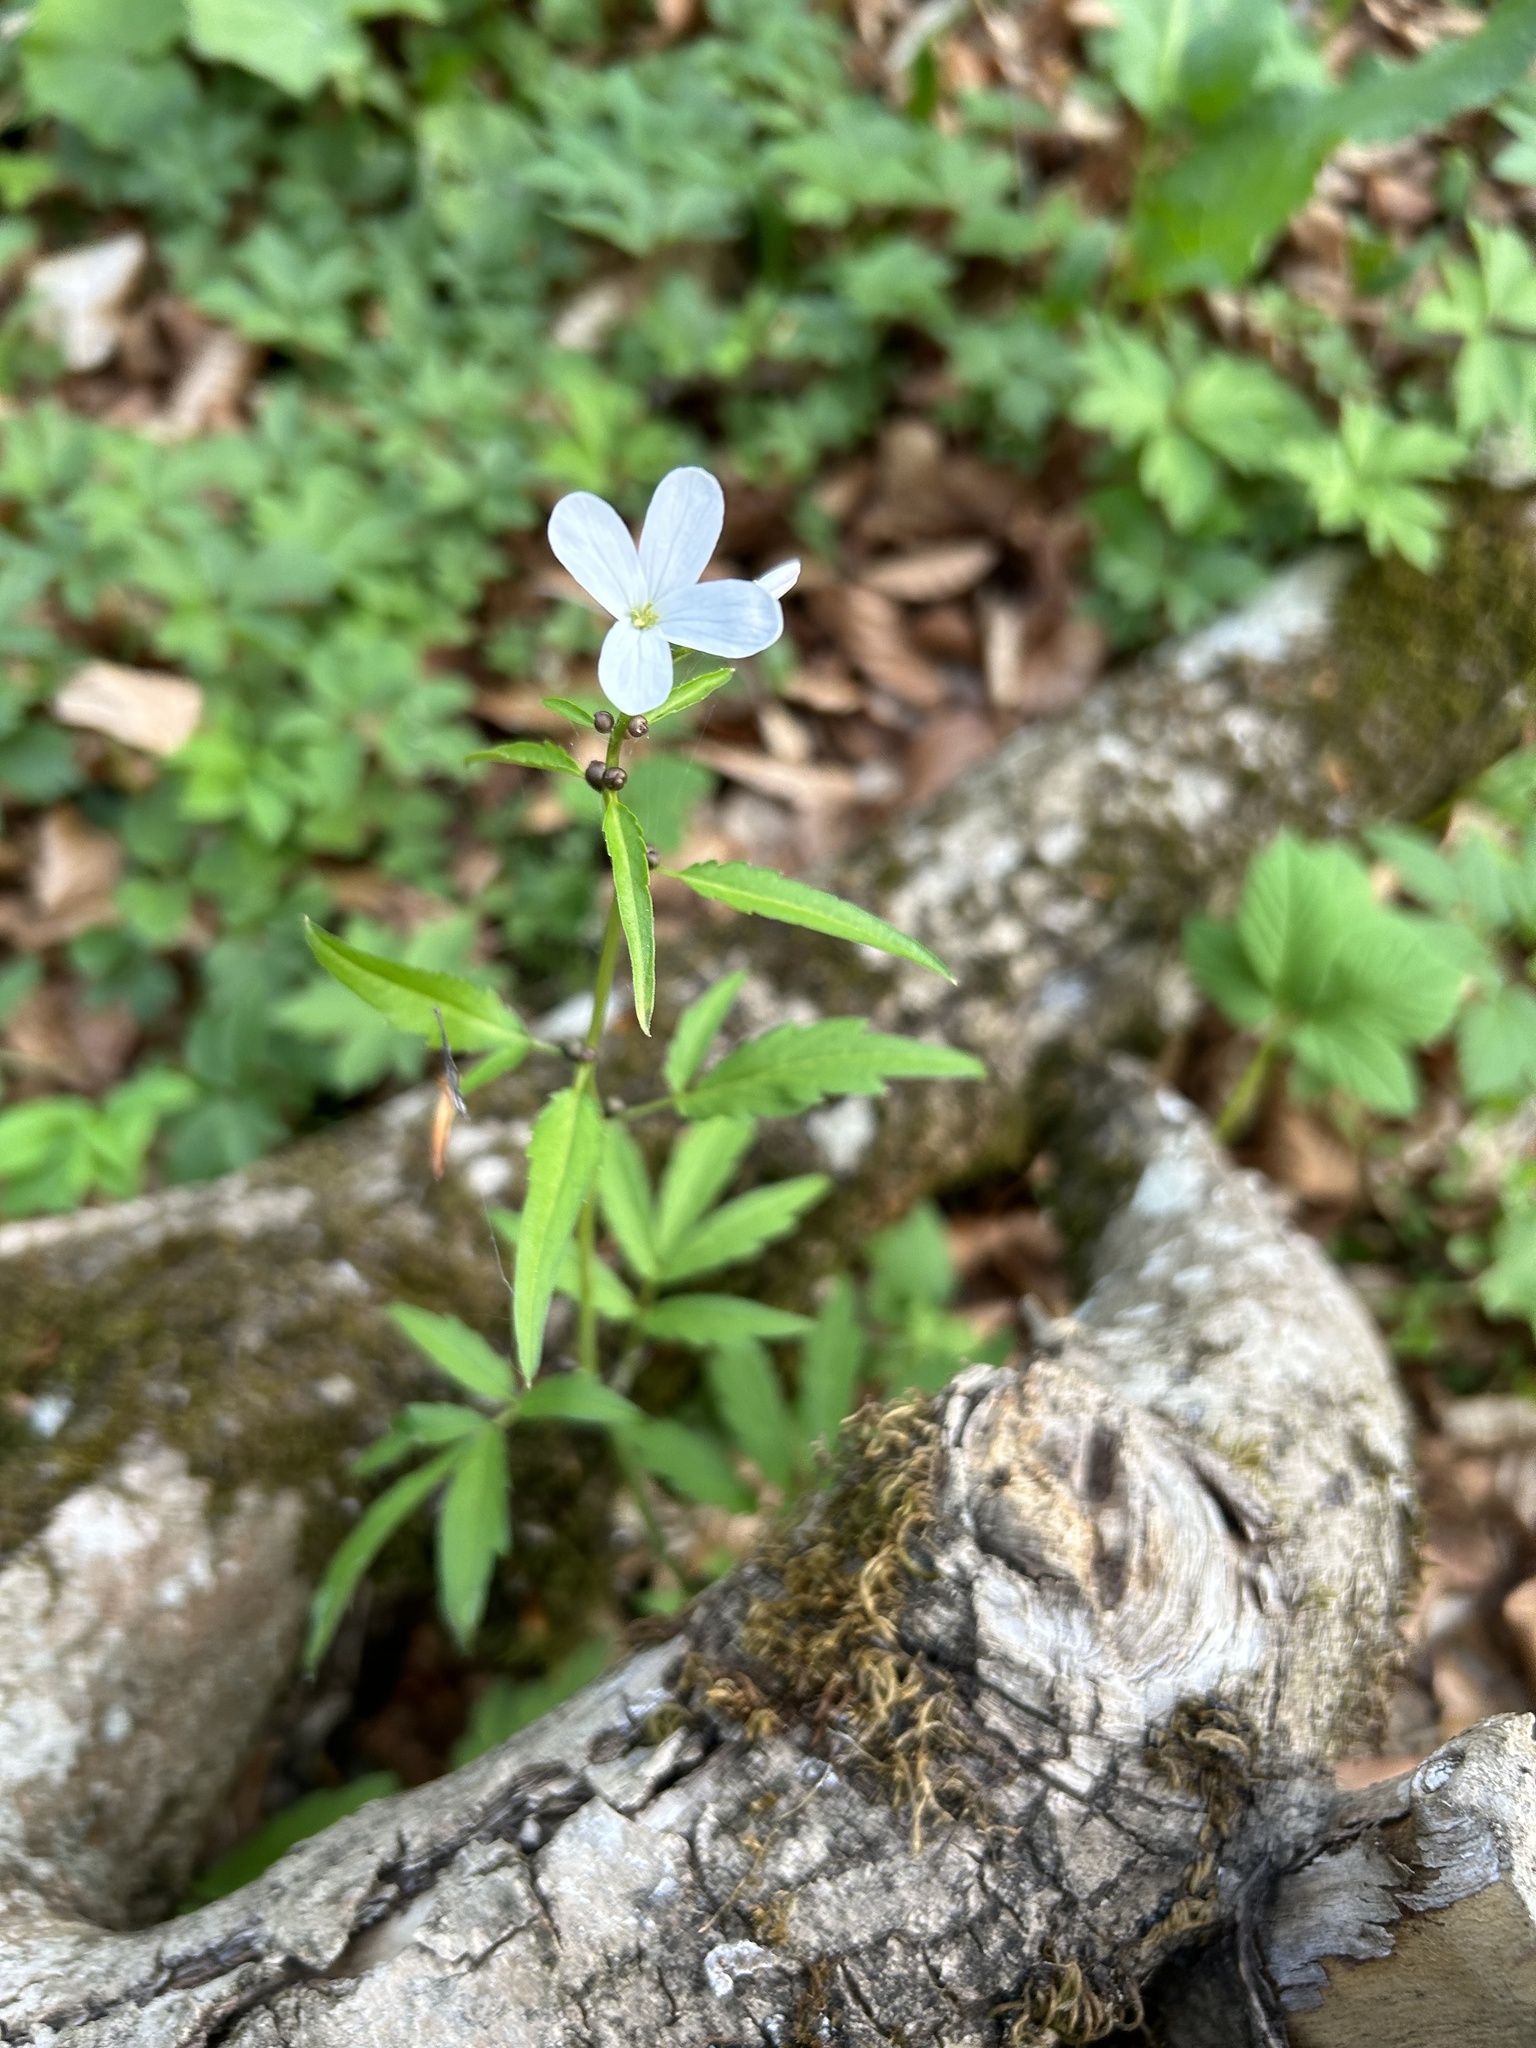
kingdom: Plantae
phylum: Tracheophyta
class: Magnoliopsida
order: Brassicales
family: Brassicaceae
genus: Cardamine
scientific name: Cardamine bulbifera
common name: Coralroot bittercress
